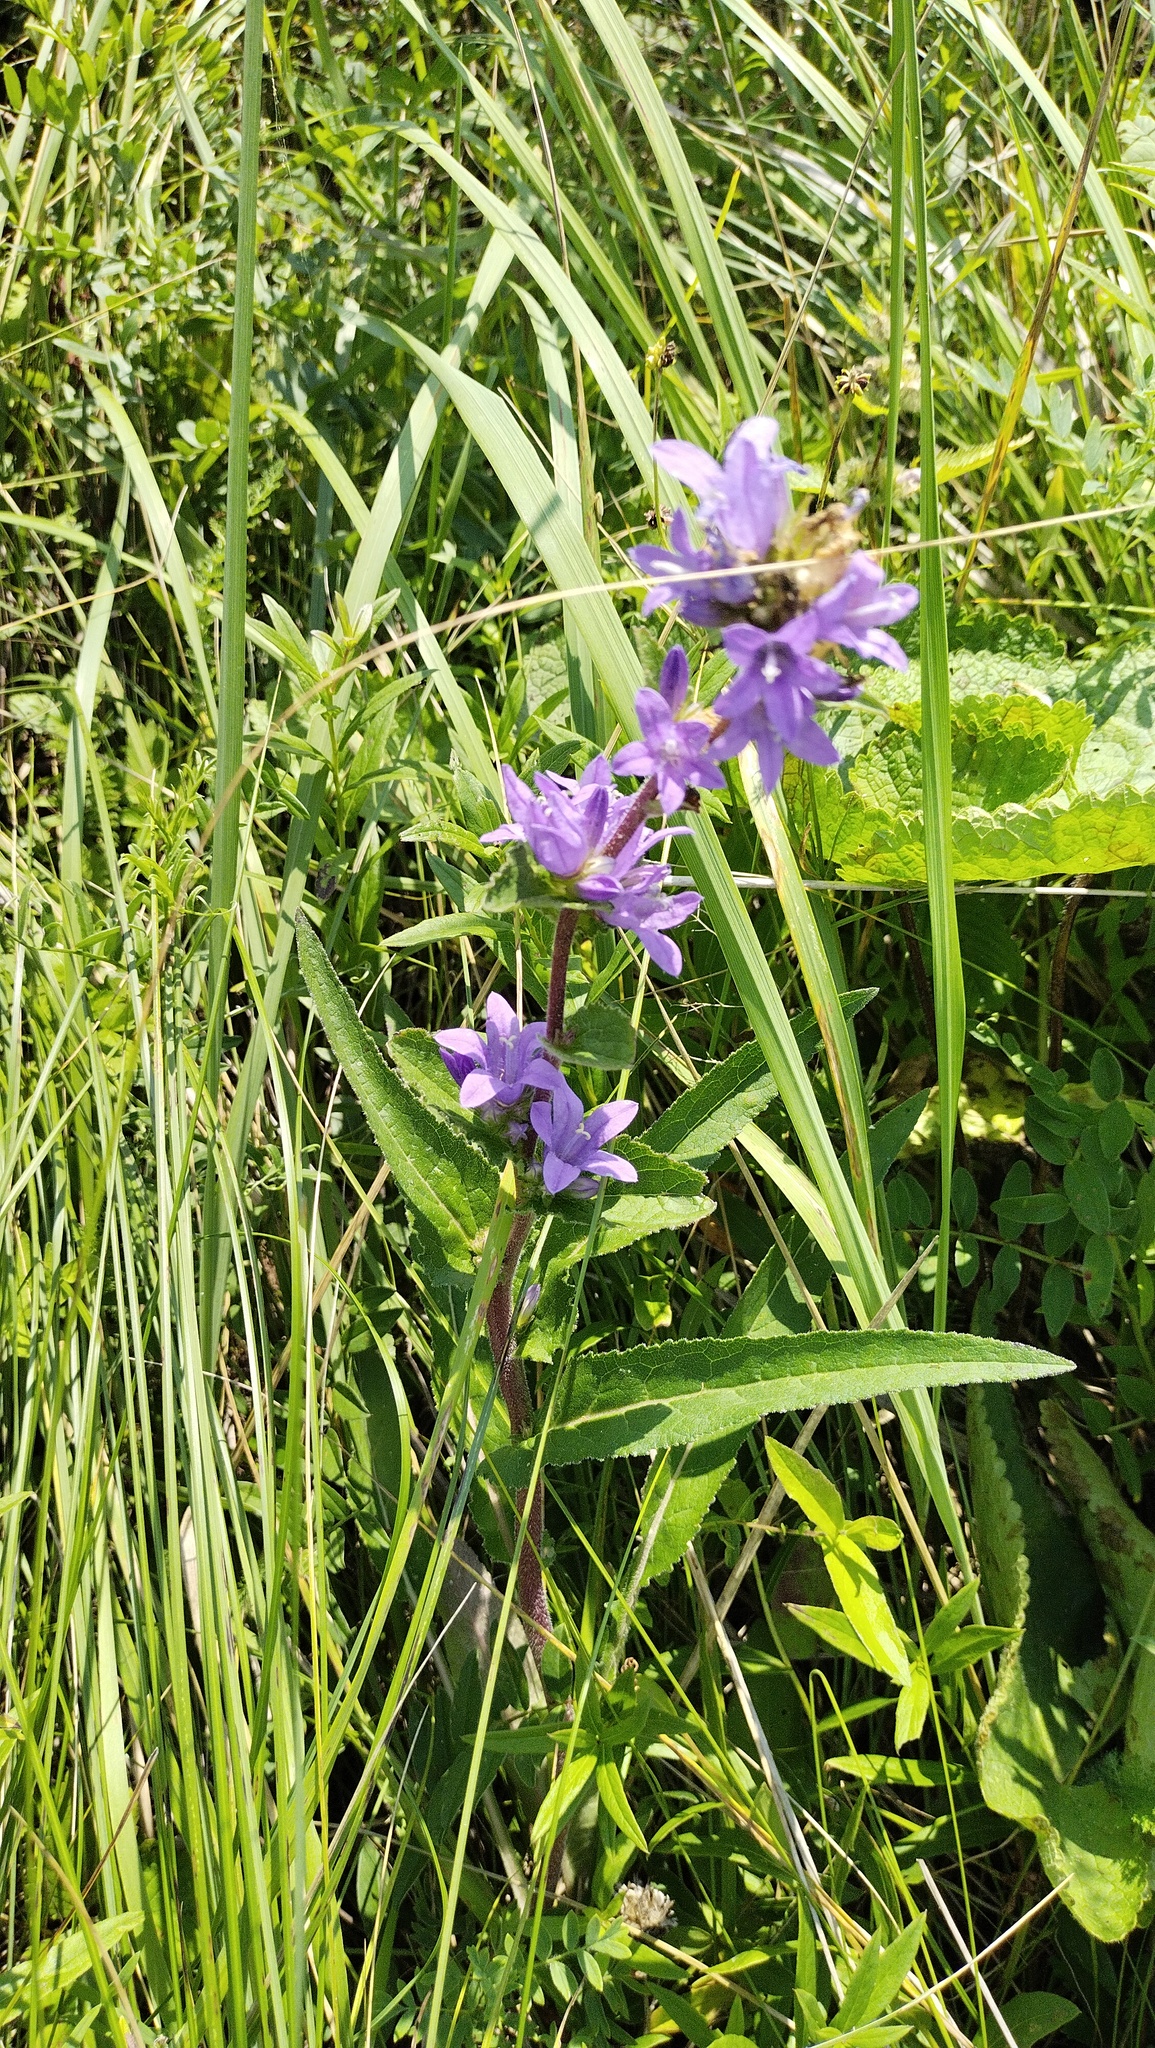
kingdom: Plantae
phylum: Tracheophyta
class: Magnoliopsida
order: Asterales
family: Campanulaceae
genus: Campanula
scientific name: Campanula glomerata
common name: Clustered bellflower
